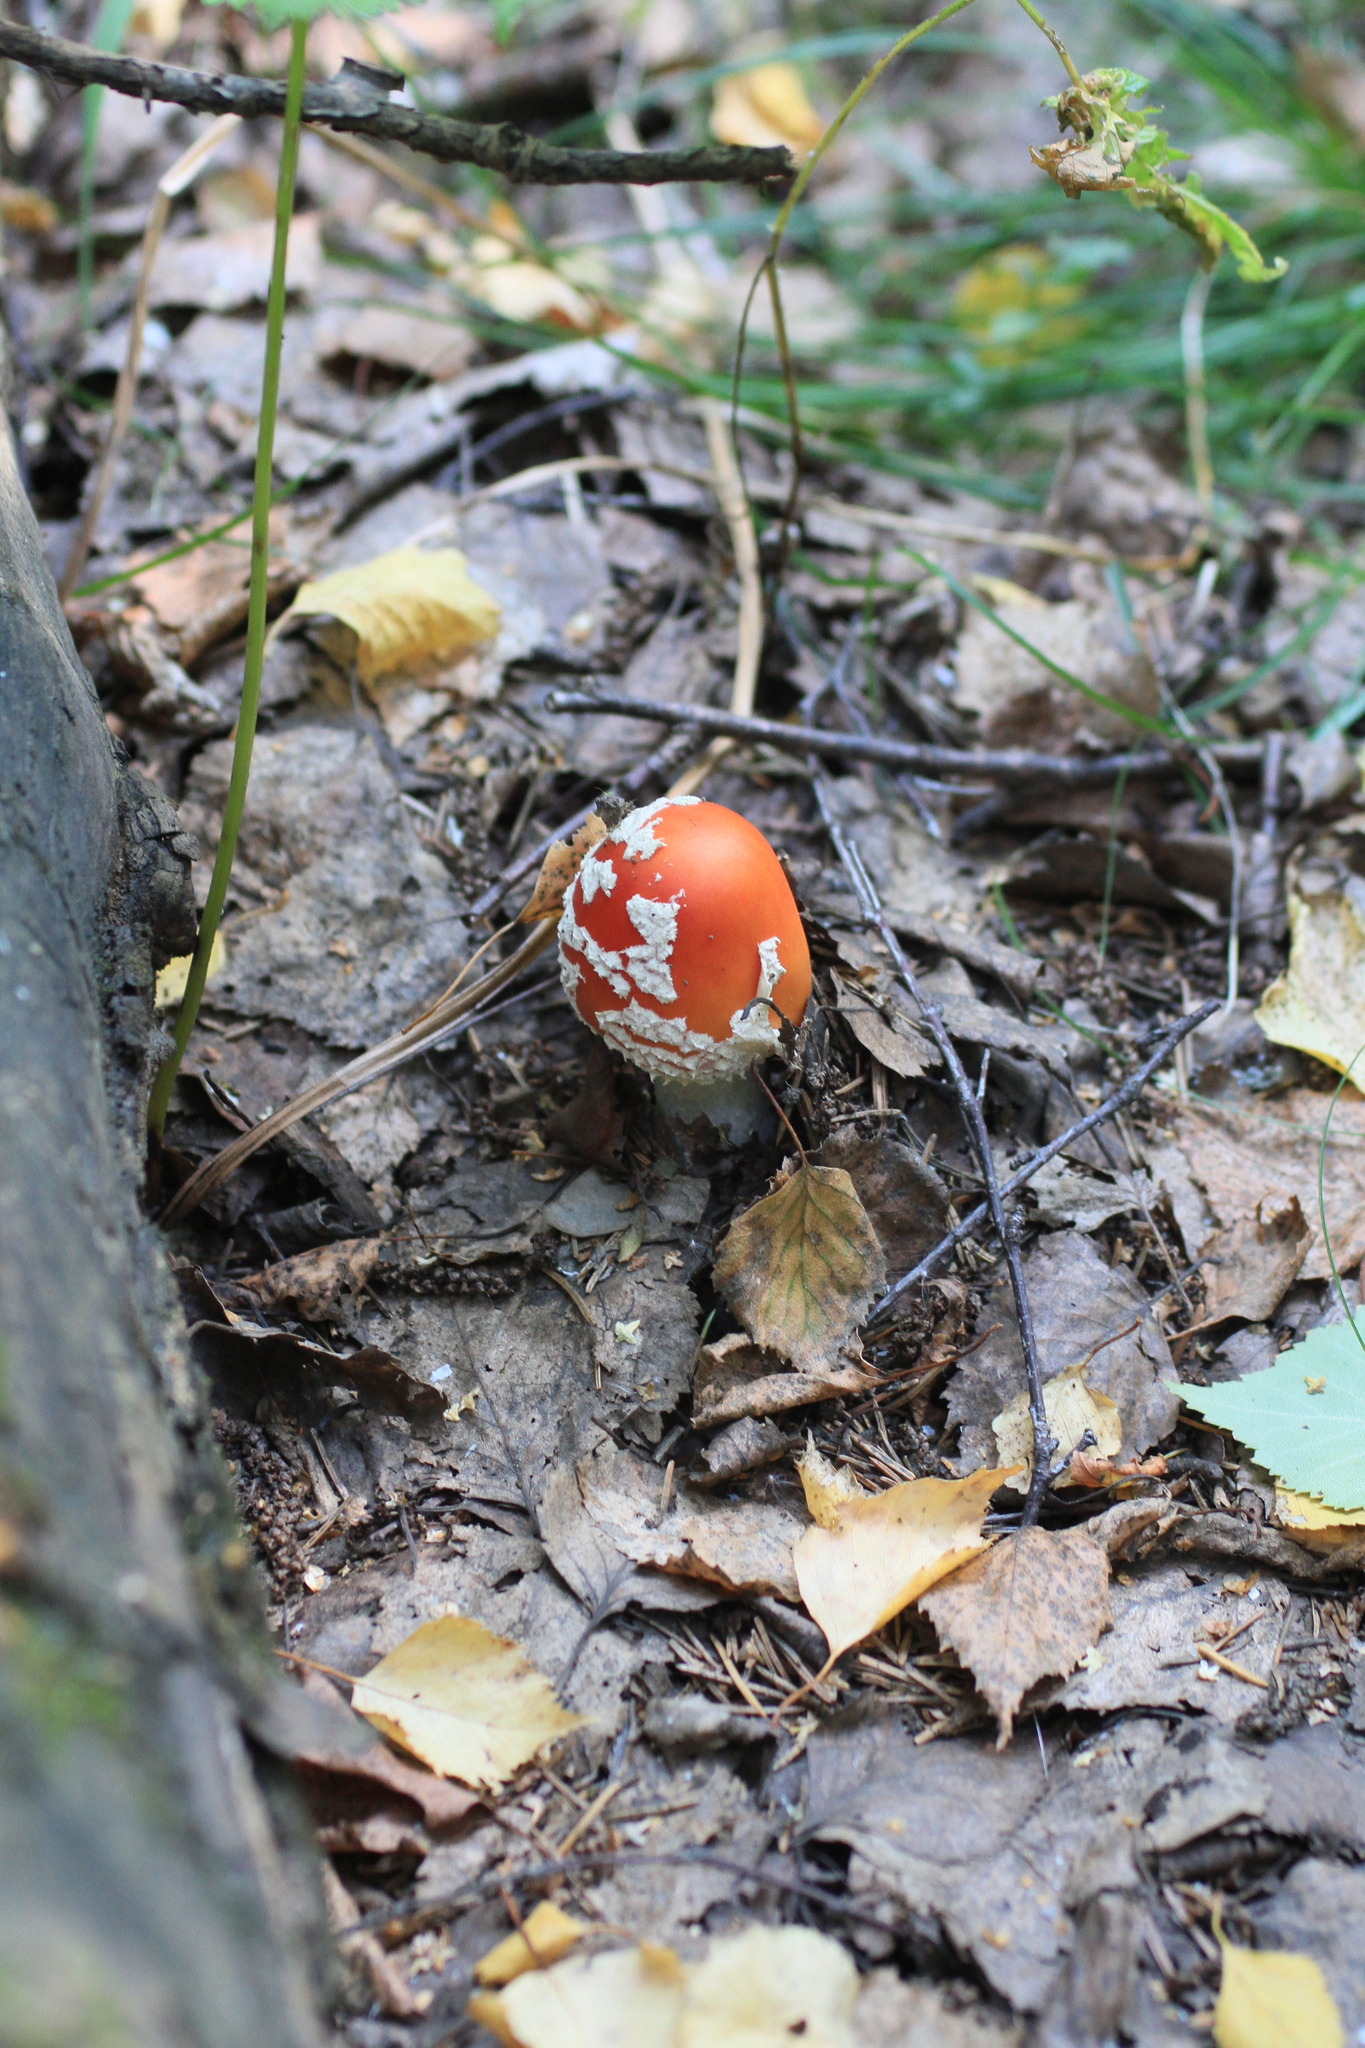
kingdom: Fungi
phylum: Basidiomycota
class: Agaricomycetes
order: Agaricales
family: Amanitaceae
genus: Amanita
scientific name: Amanita muscaria
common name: Fly agaric
